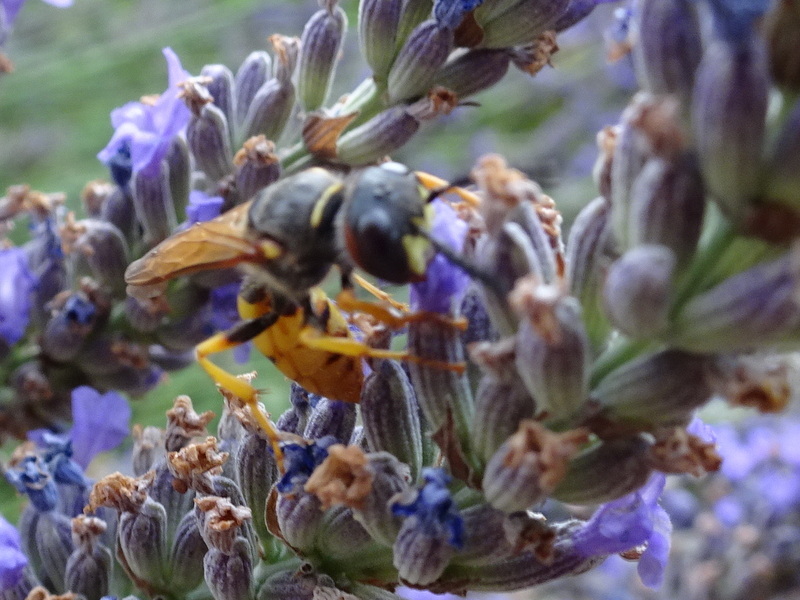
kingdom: Animalia
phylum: Arthropoda
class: Insecta
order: Hymenoptera
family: Crabronidae
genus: Philanthus
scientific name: Philanthus triangulum
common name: Bee wolf
